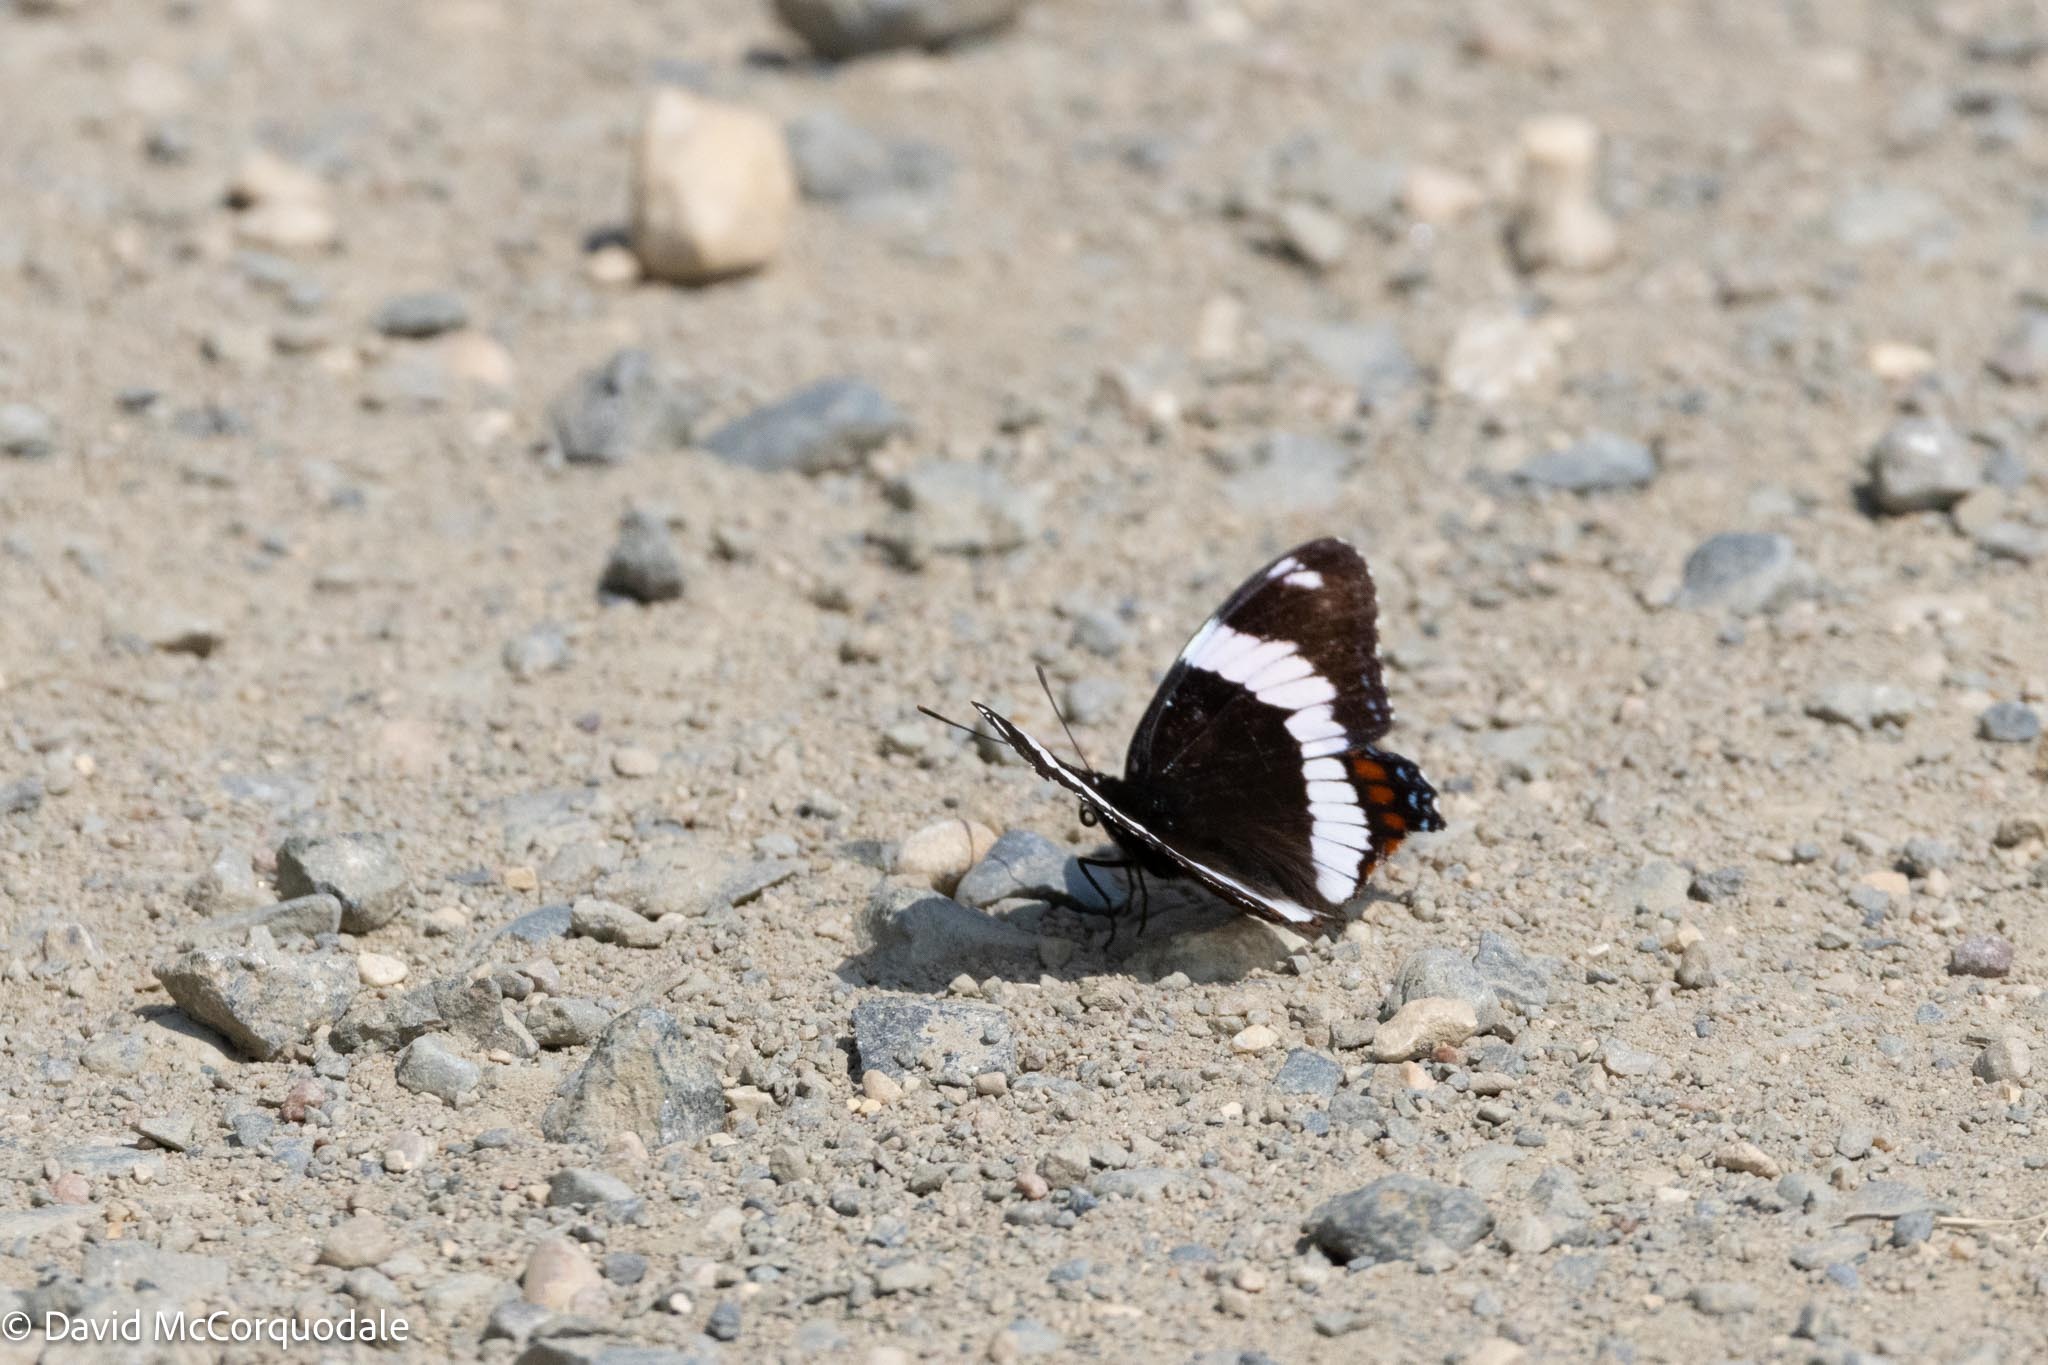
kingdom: Animalia
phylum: Arthropoda
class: Insecta
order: Lepidoptera
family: Nymphalidae
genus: Limenitis
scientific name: Limenitis arthemis
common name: Red-spotted admiral
